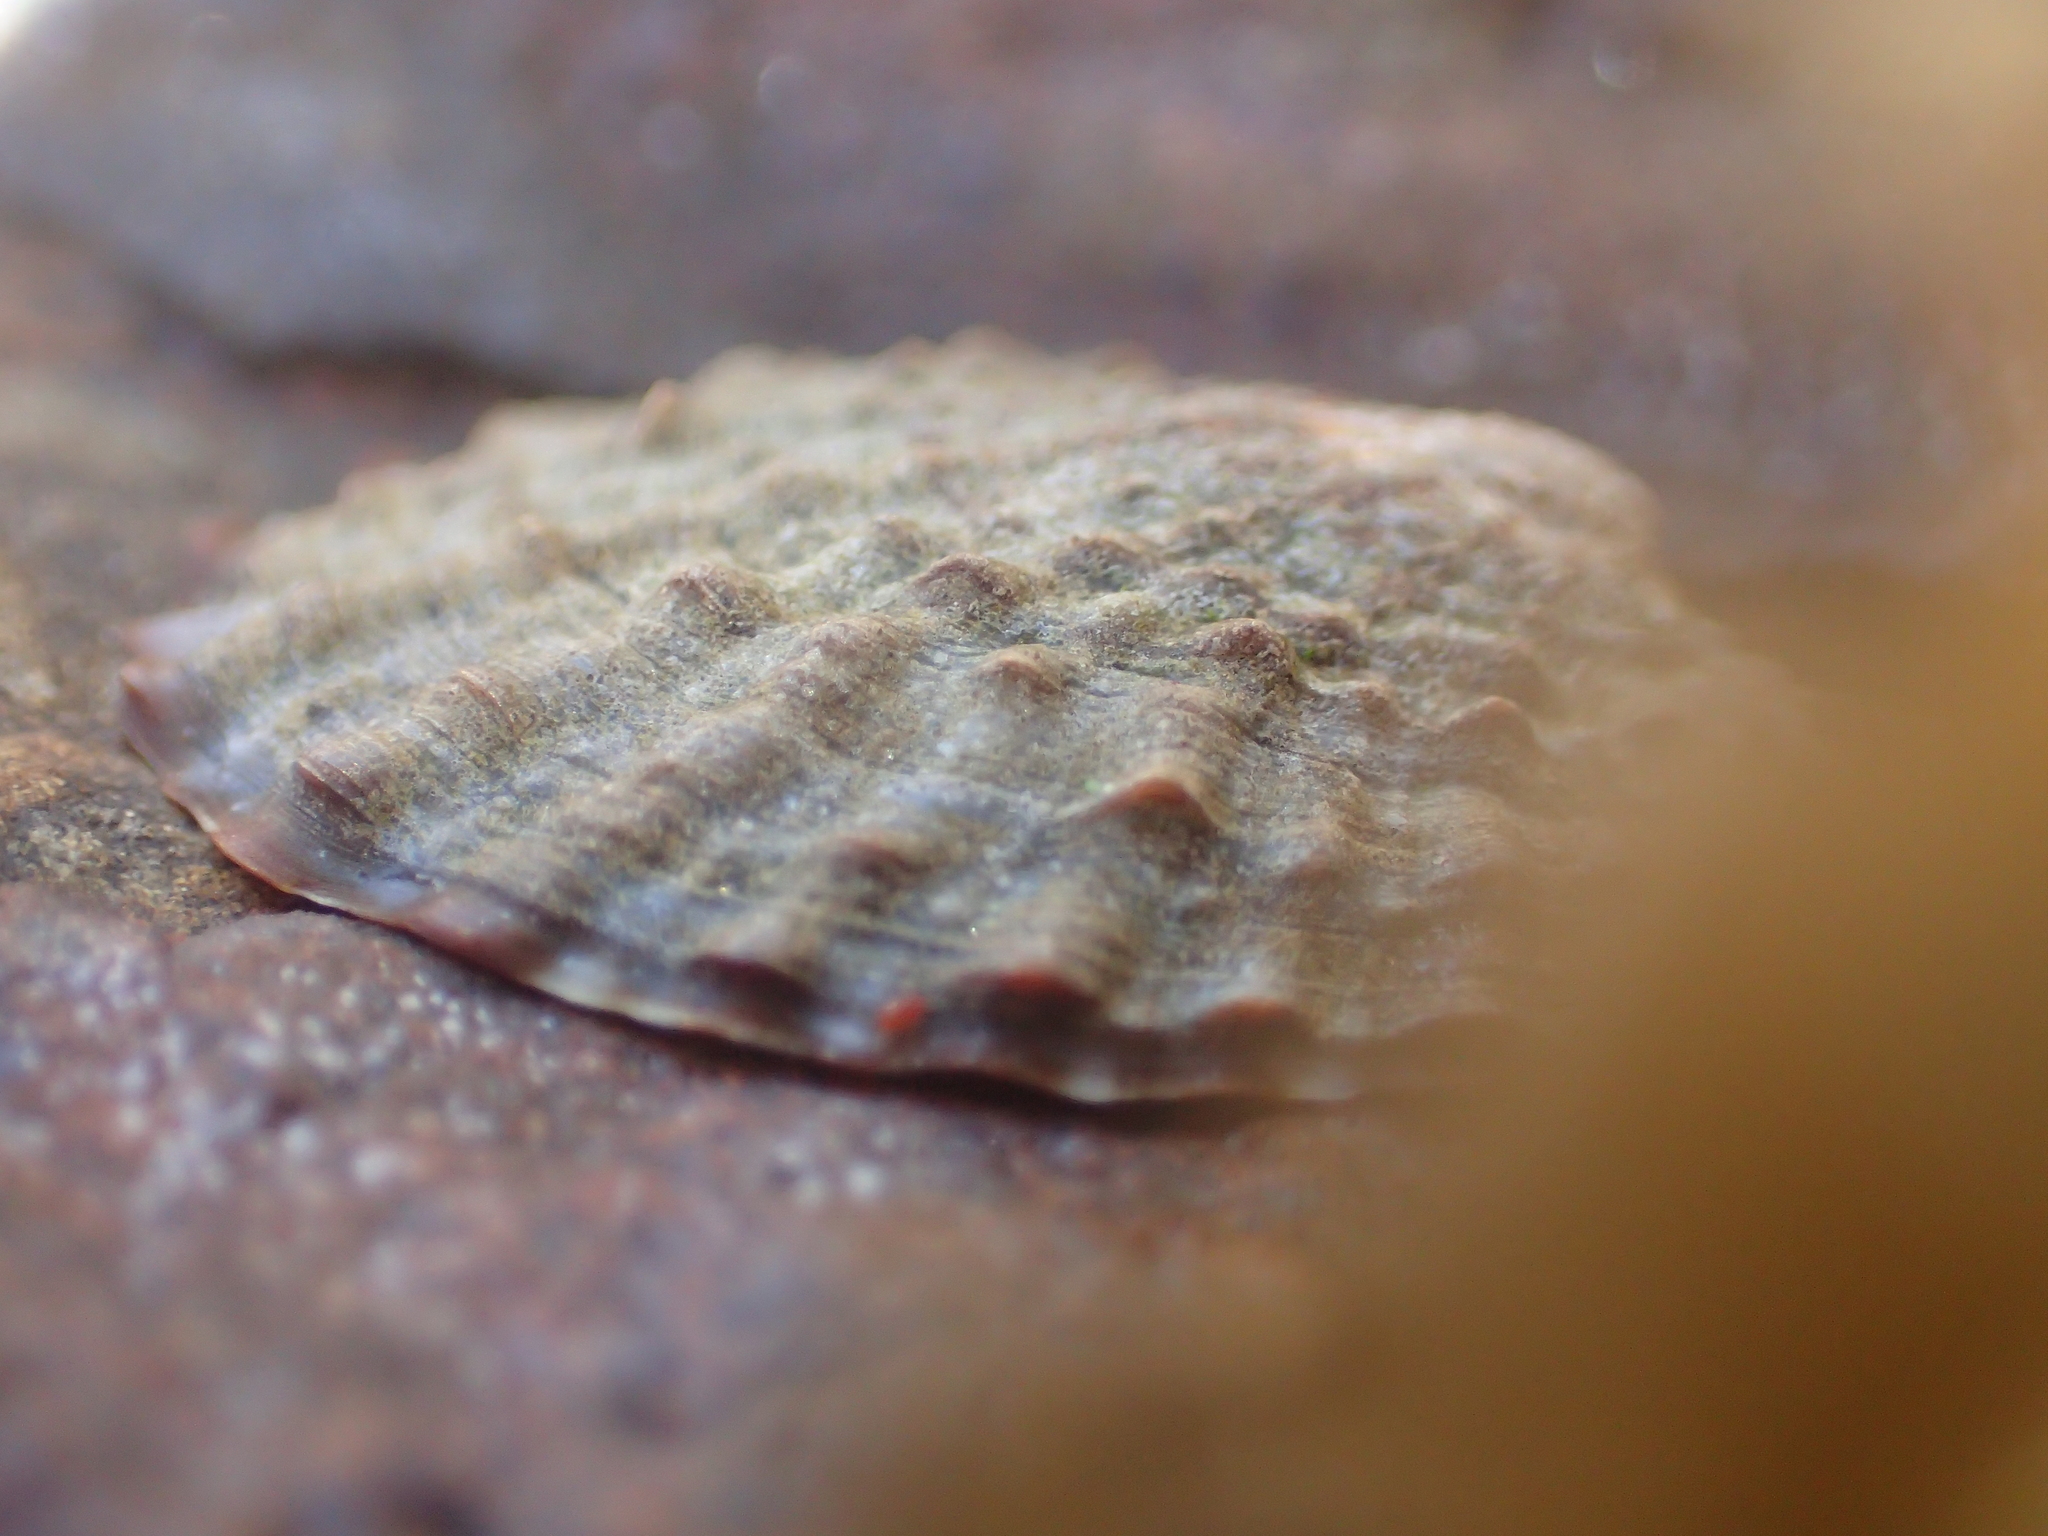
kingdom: Animalia
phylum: Mollusca
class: Gastropoda
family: Nacellidae
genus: Cellana
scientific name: Cellana denticulata
